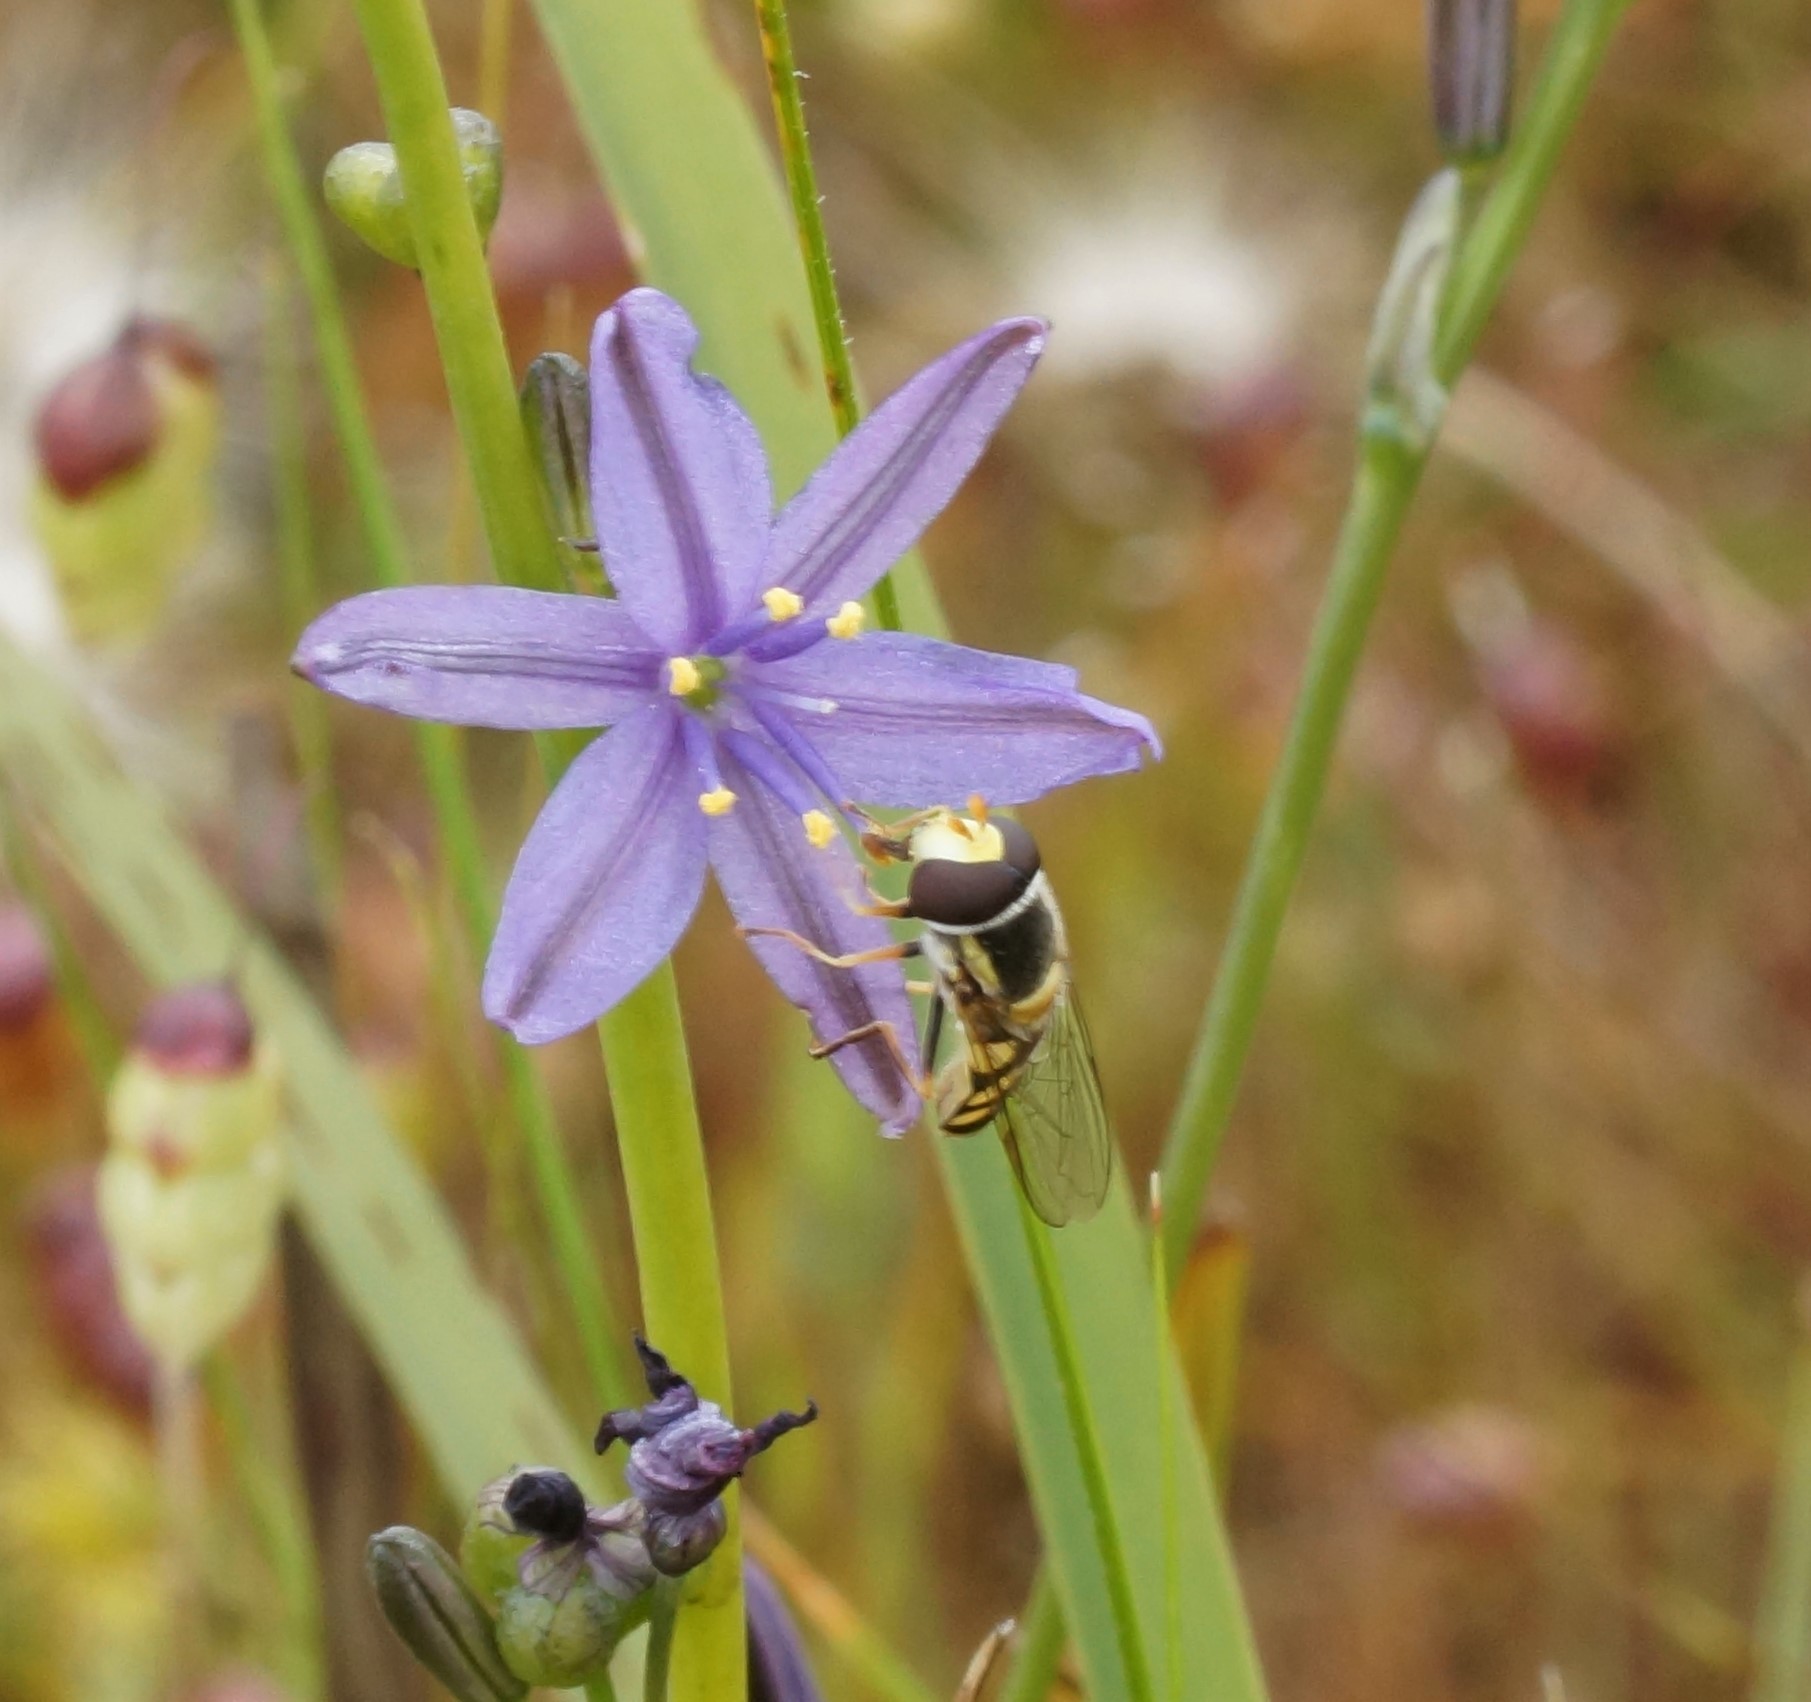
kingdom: Animalia
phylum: Arthropoda
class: Insecta
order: Diptera
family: Syrphidae
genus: Simosyrphus
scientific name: Simosyrphus grandicornis
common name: Hoverfly
